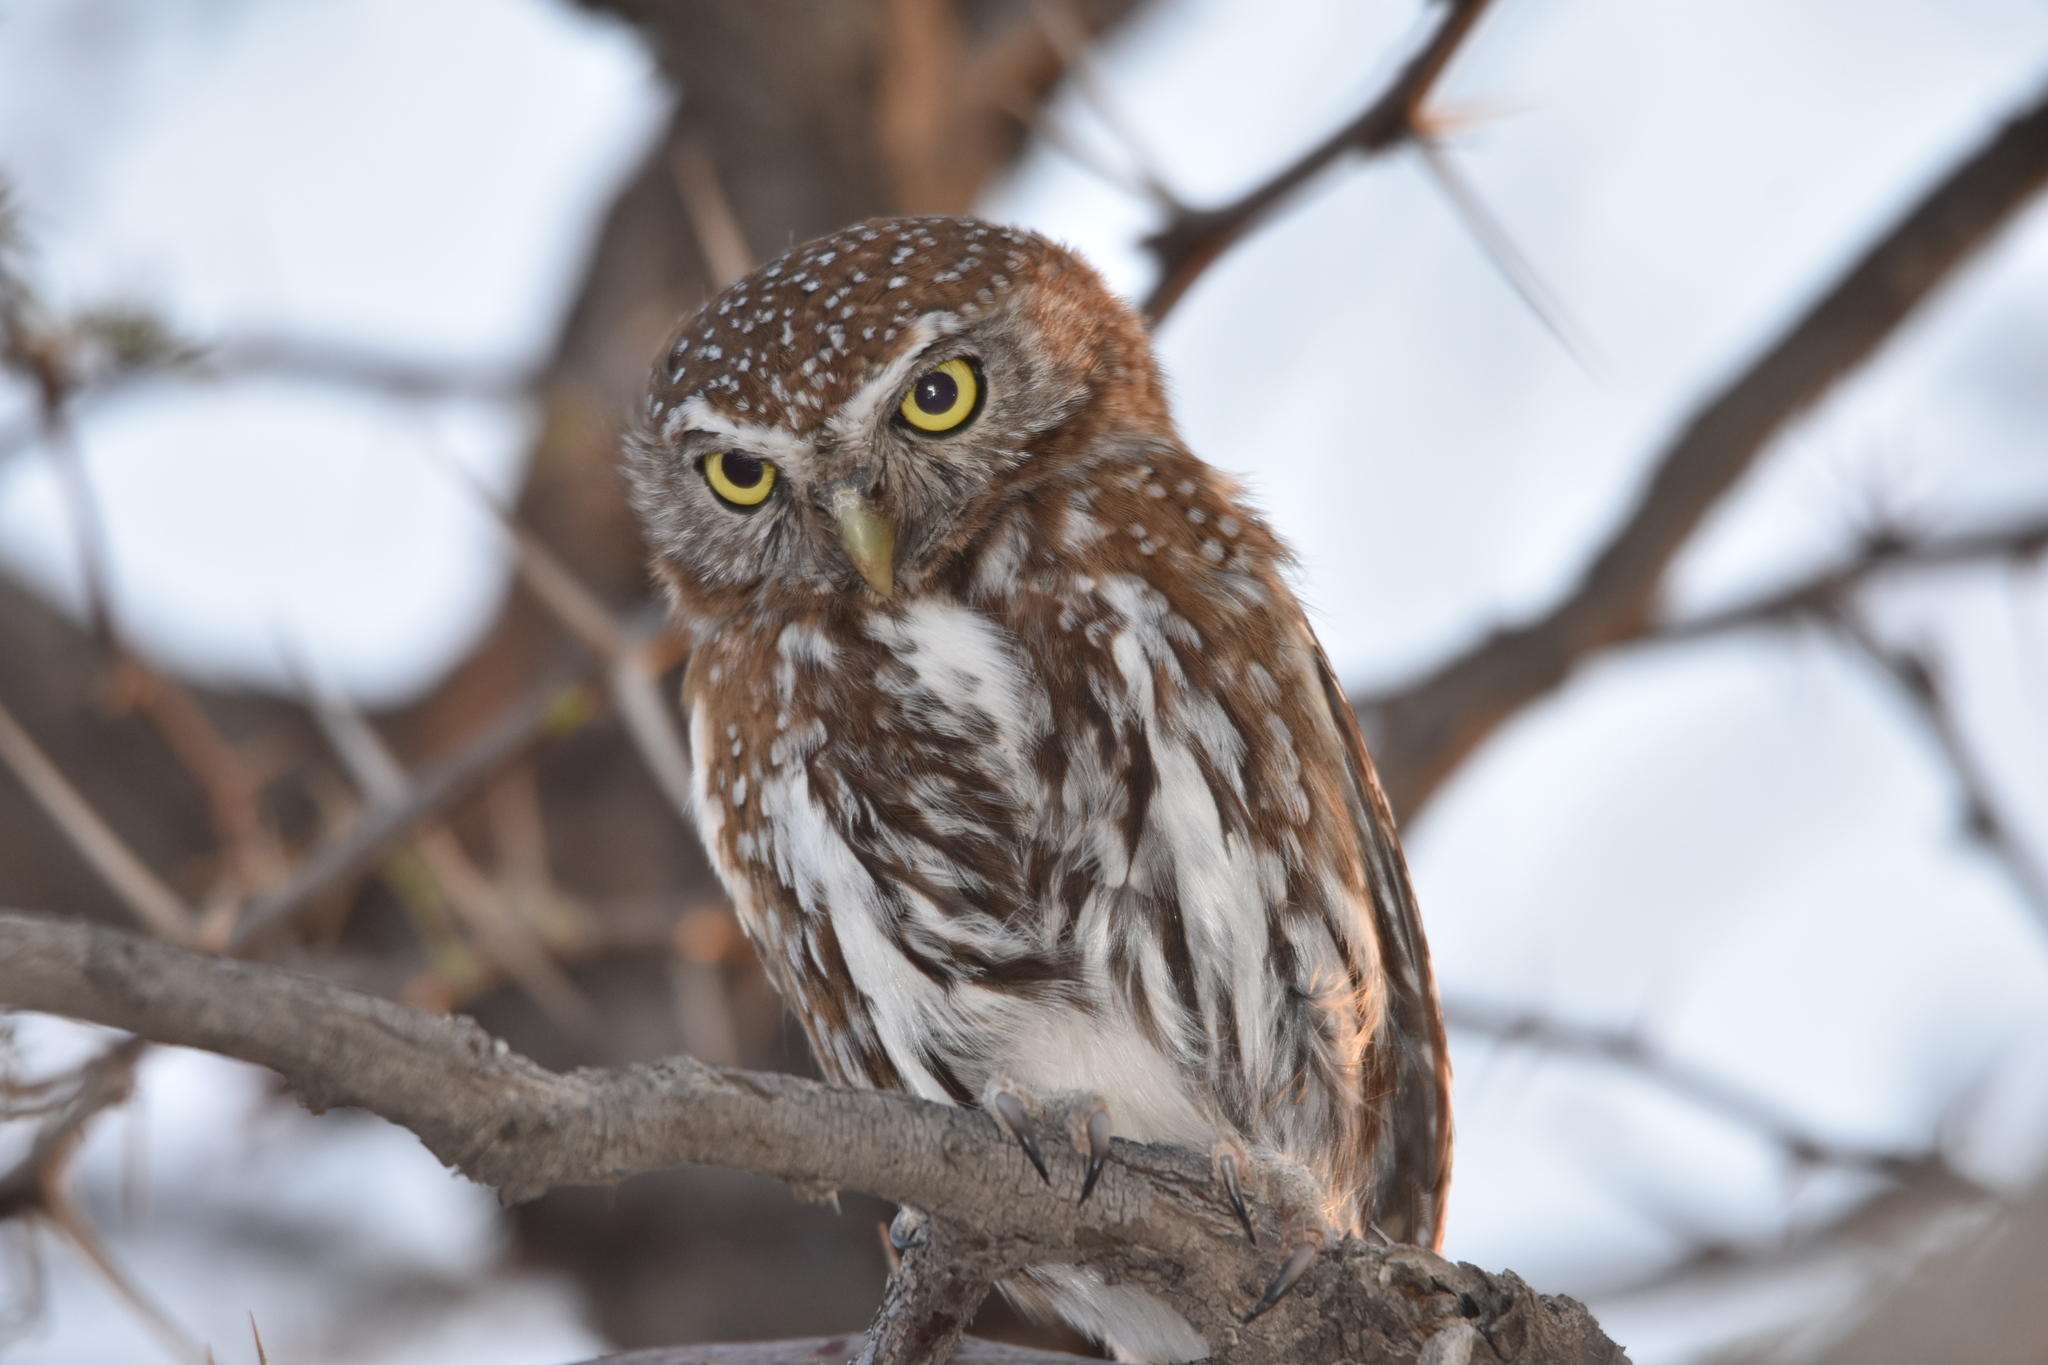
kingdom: Animalia
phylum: Chordata
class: Aves
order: Strigiformes
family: Strigidae
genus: Glaucidium
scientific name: Glaucidium perlatum
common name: Pearl-spotted owlet
